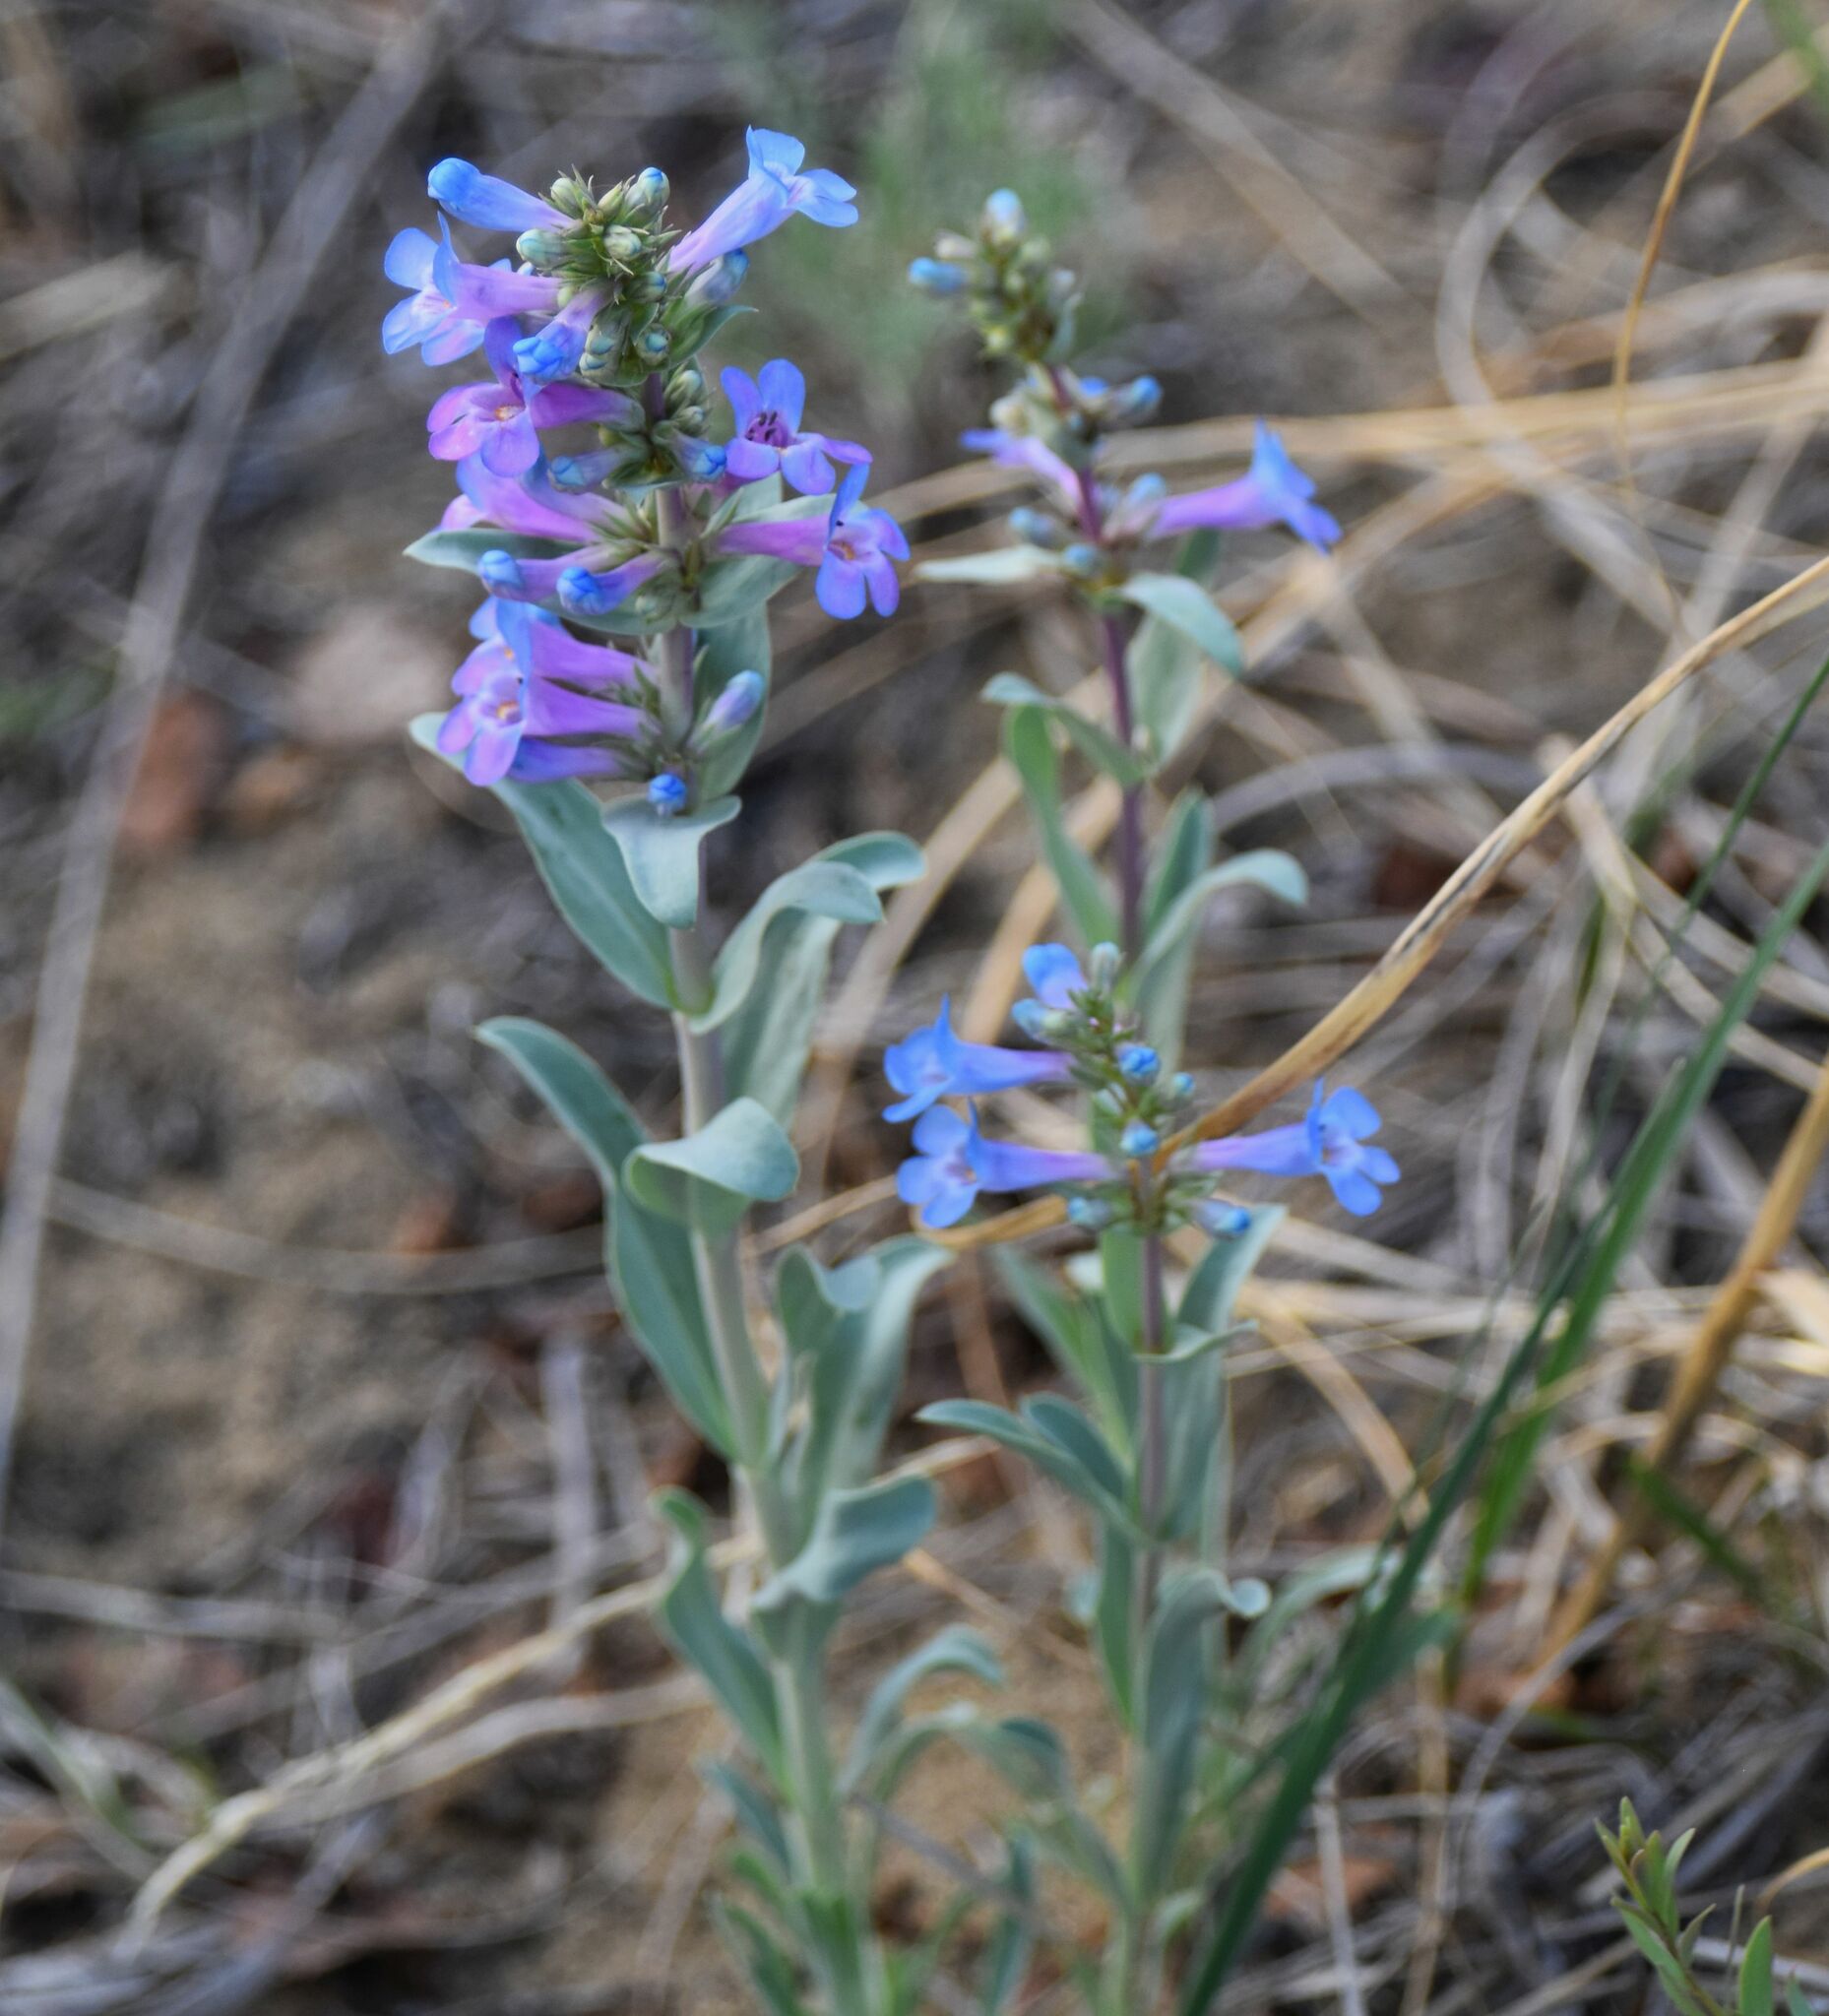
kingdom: Plantae
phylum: Tracheophyta
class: Magnoliopsida
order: Lamiales
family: Plantaginaceae
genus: Penstemon
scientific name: Penstemon nitidus
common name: Shining penstemon
